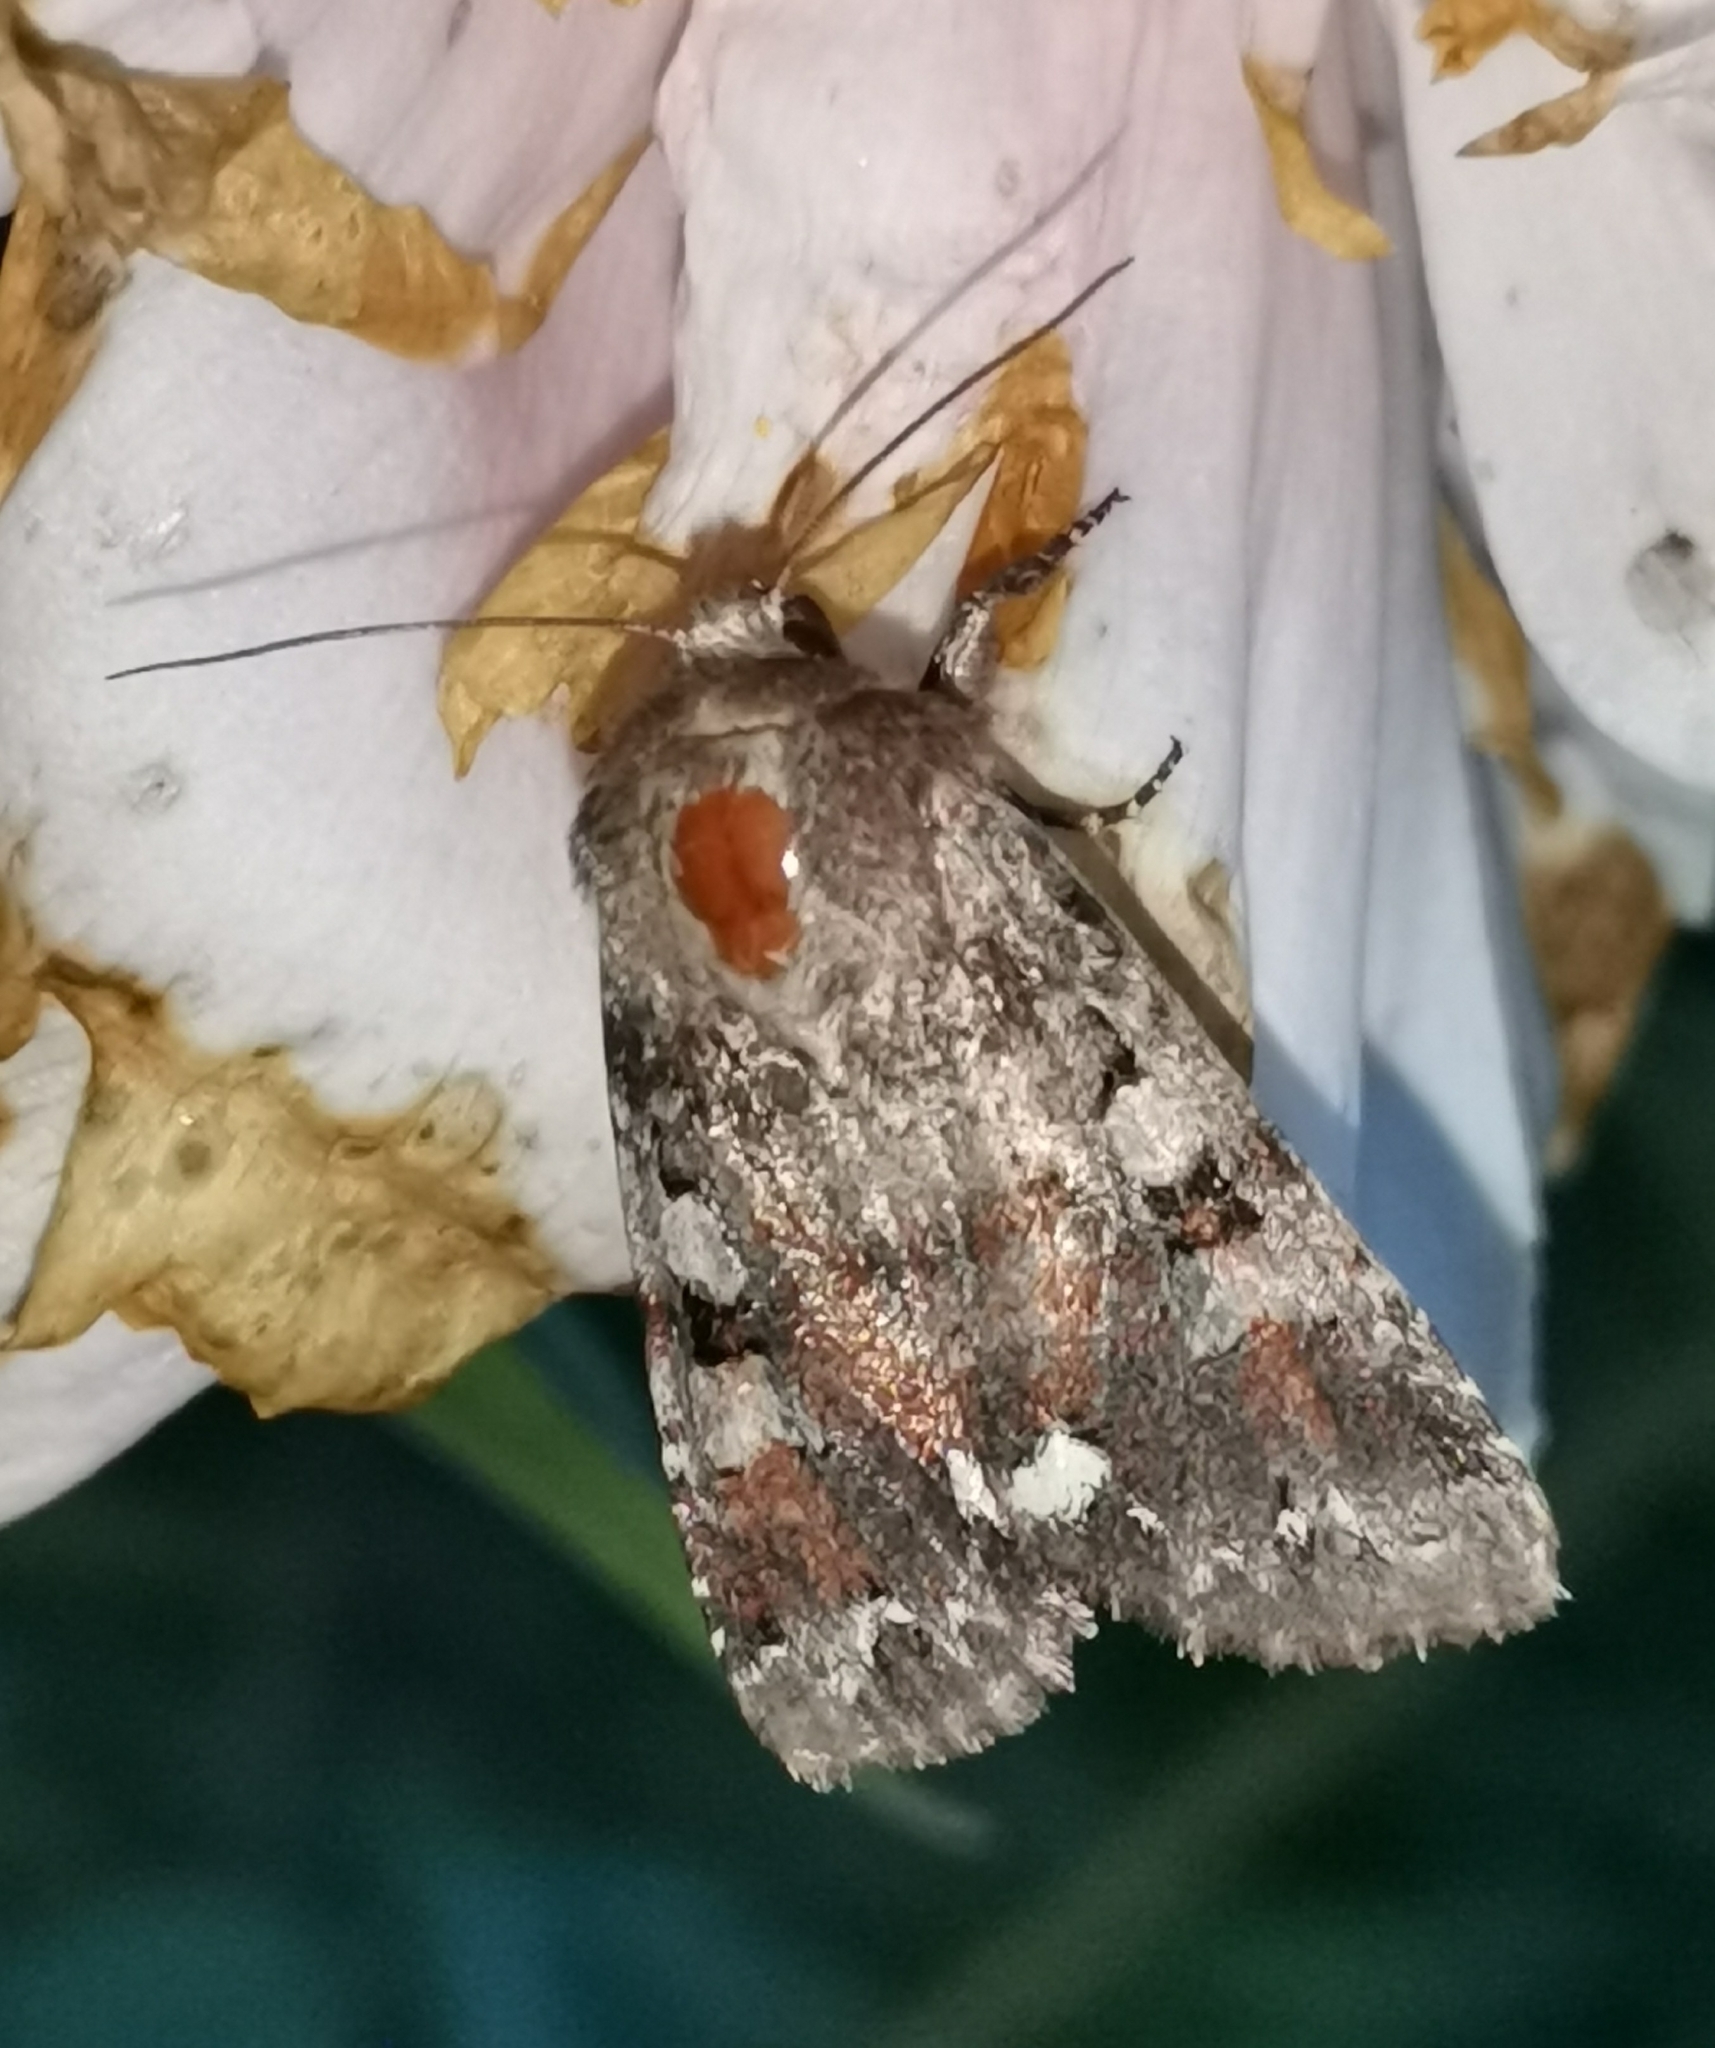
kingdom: Animalia
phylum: Arthropoda
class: Insecta
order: Lepidoptera
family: Noctuidae
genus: Ceramica
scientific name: Ceramica pisi
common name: Broom moth
